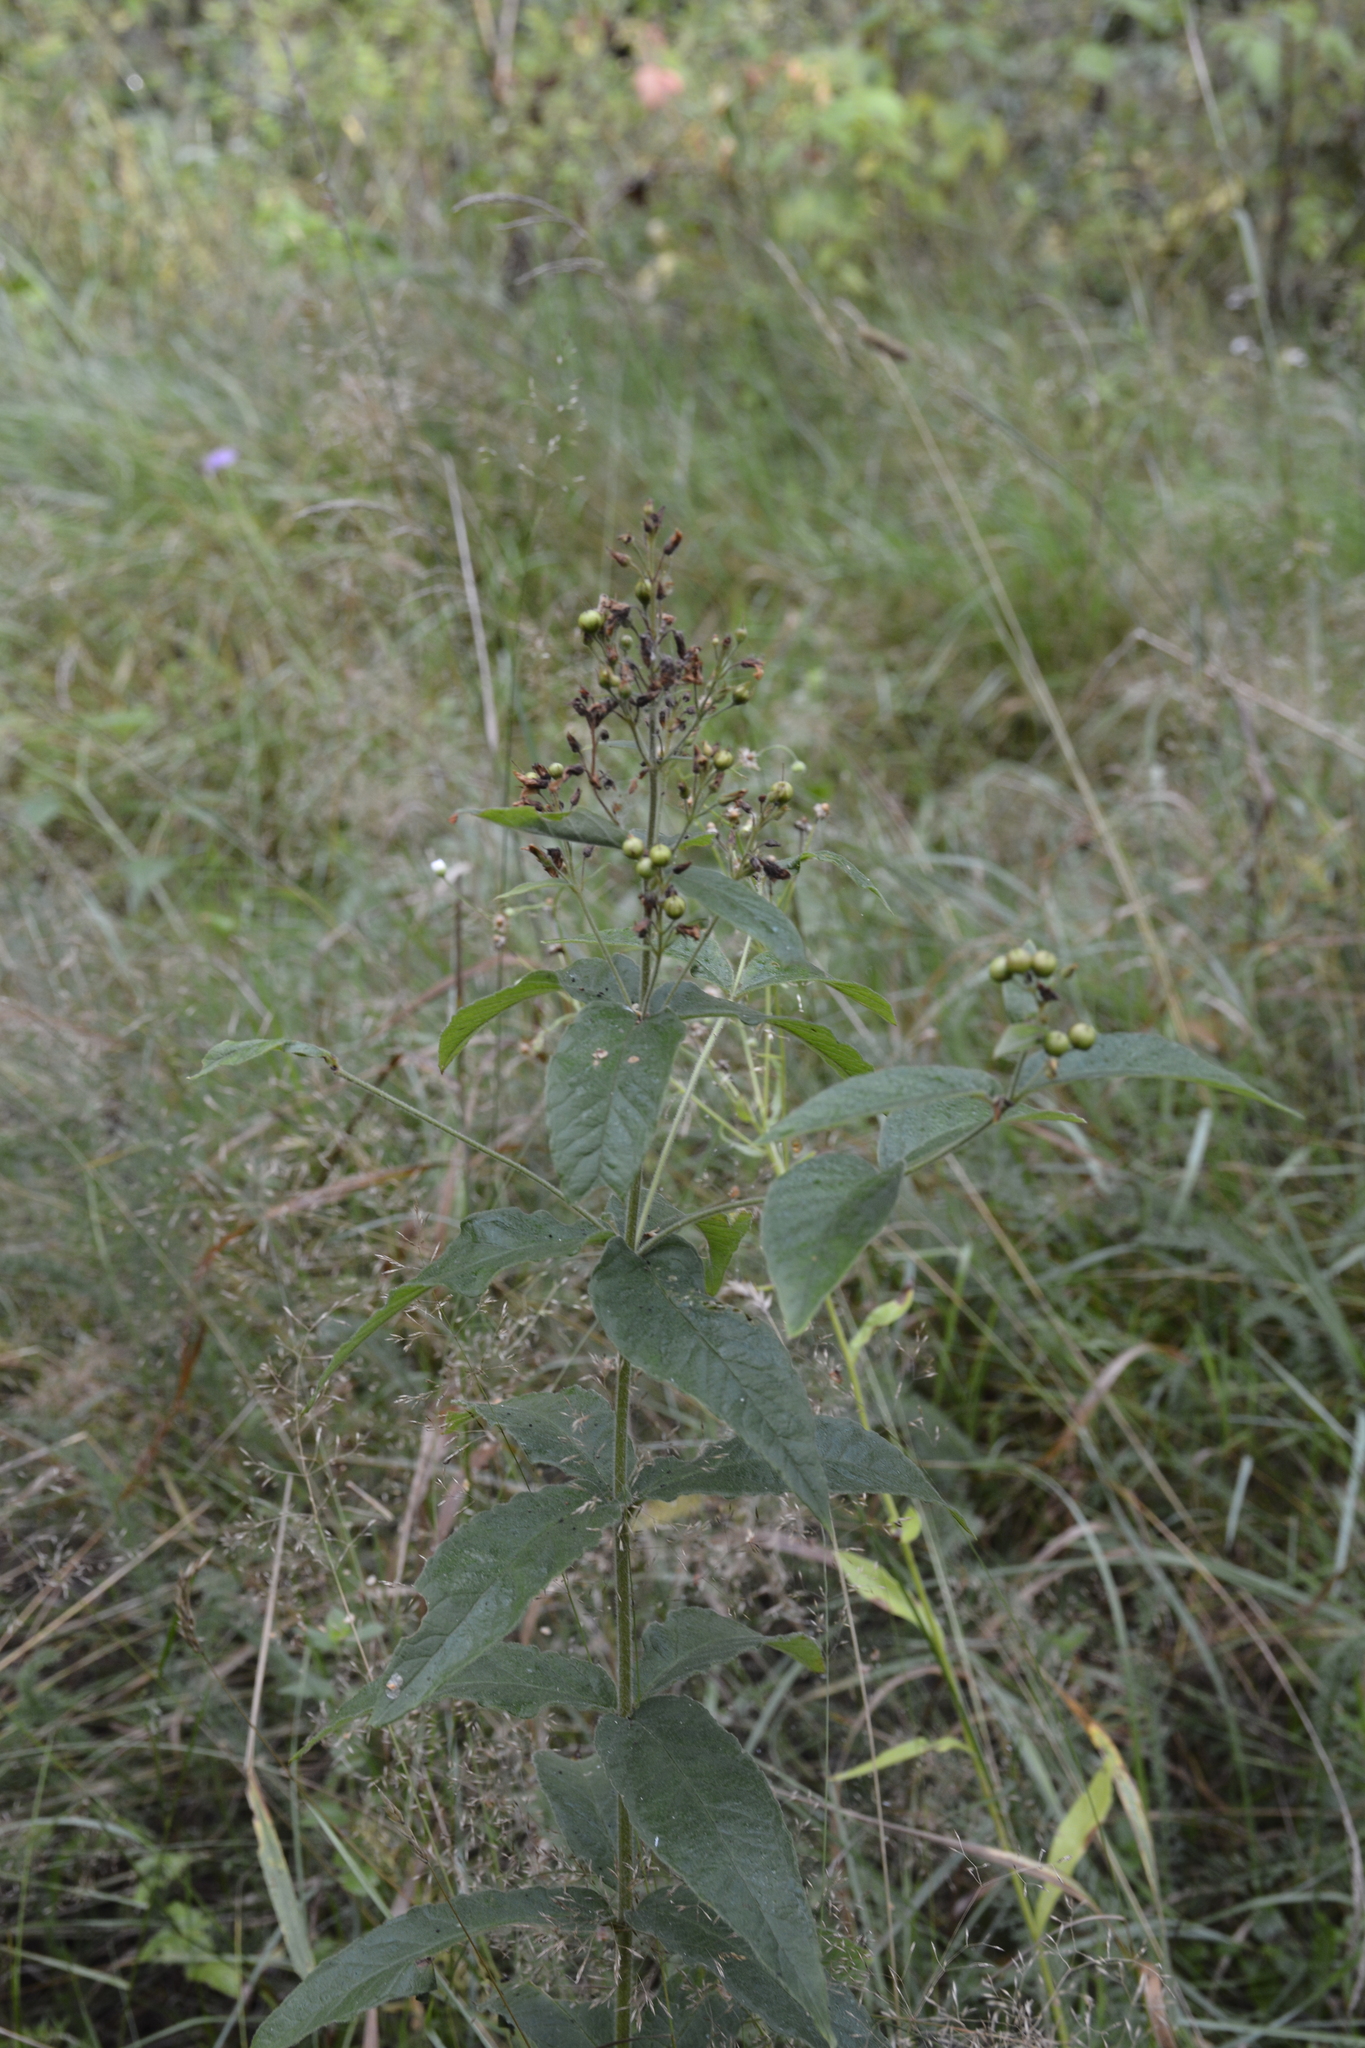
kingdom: Plantae
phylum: Tracheophyta
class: Magnoliopsida
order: Lamiales
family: Scrophulariaceae
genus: Scrophularia
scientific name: Scrophularia nodosa
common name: Common figwort
